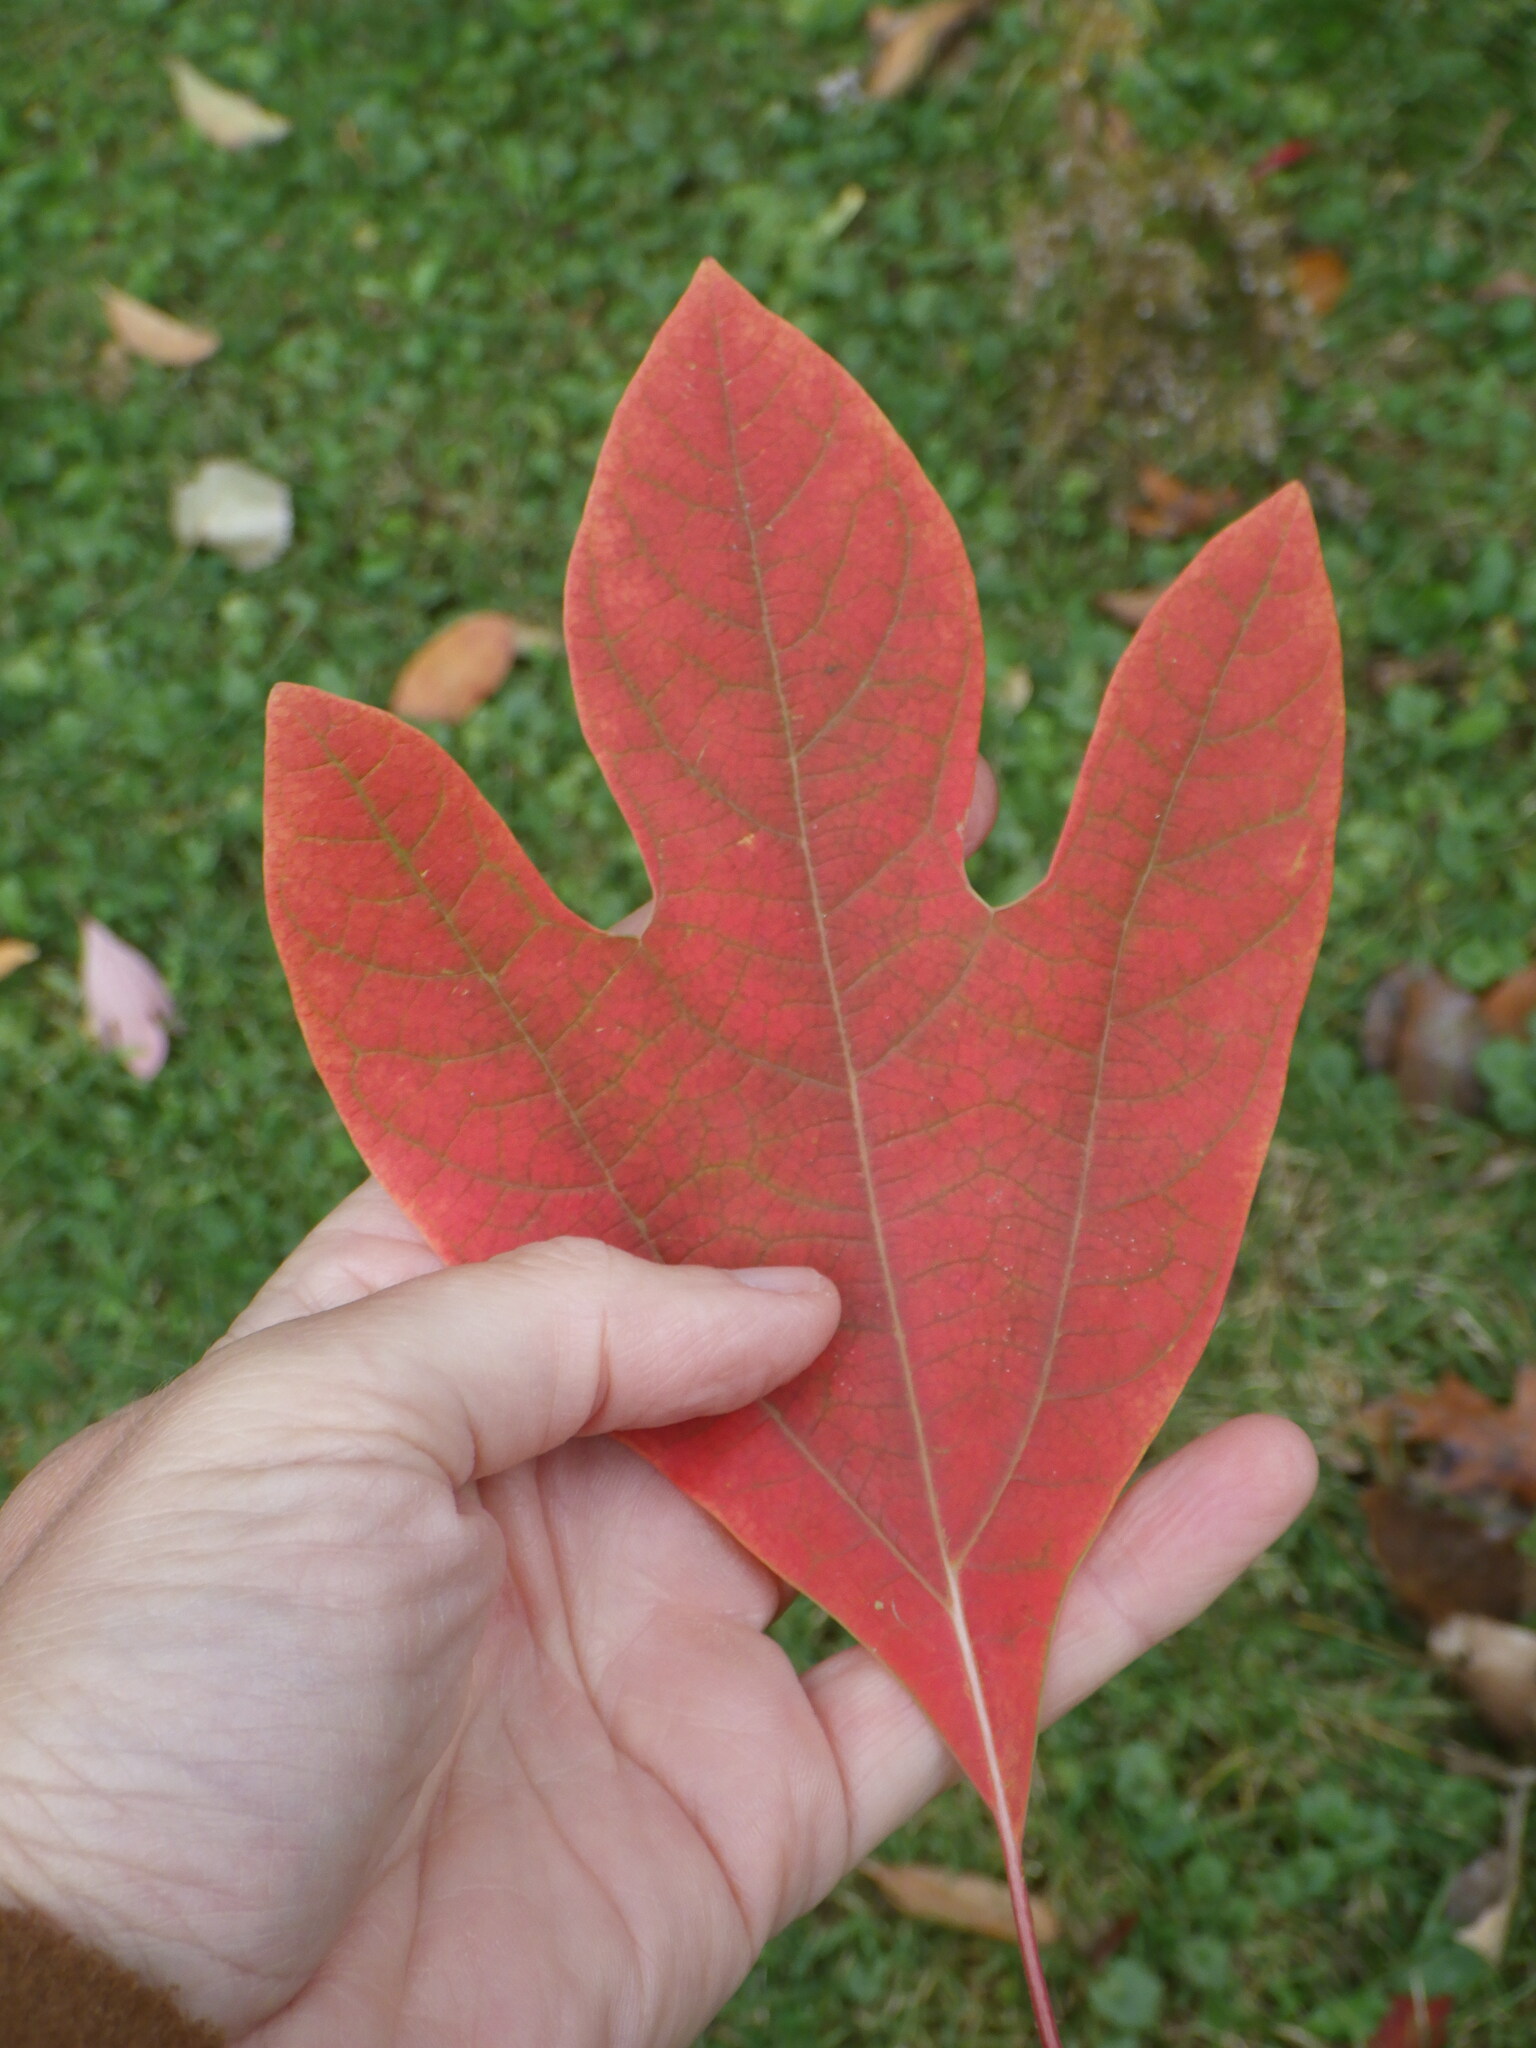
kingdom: Plantae
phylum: Tracheophyta
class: Magnoliopsida
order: Laurales
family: Lauraceae
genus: Sassafras
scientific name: Sassafras albidum
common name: Sassafras
